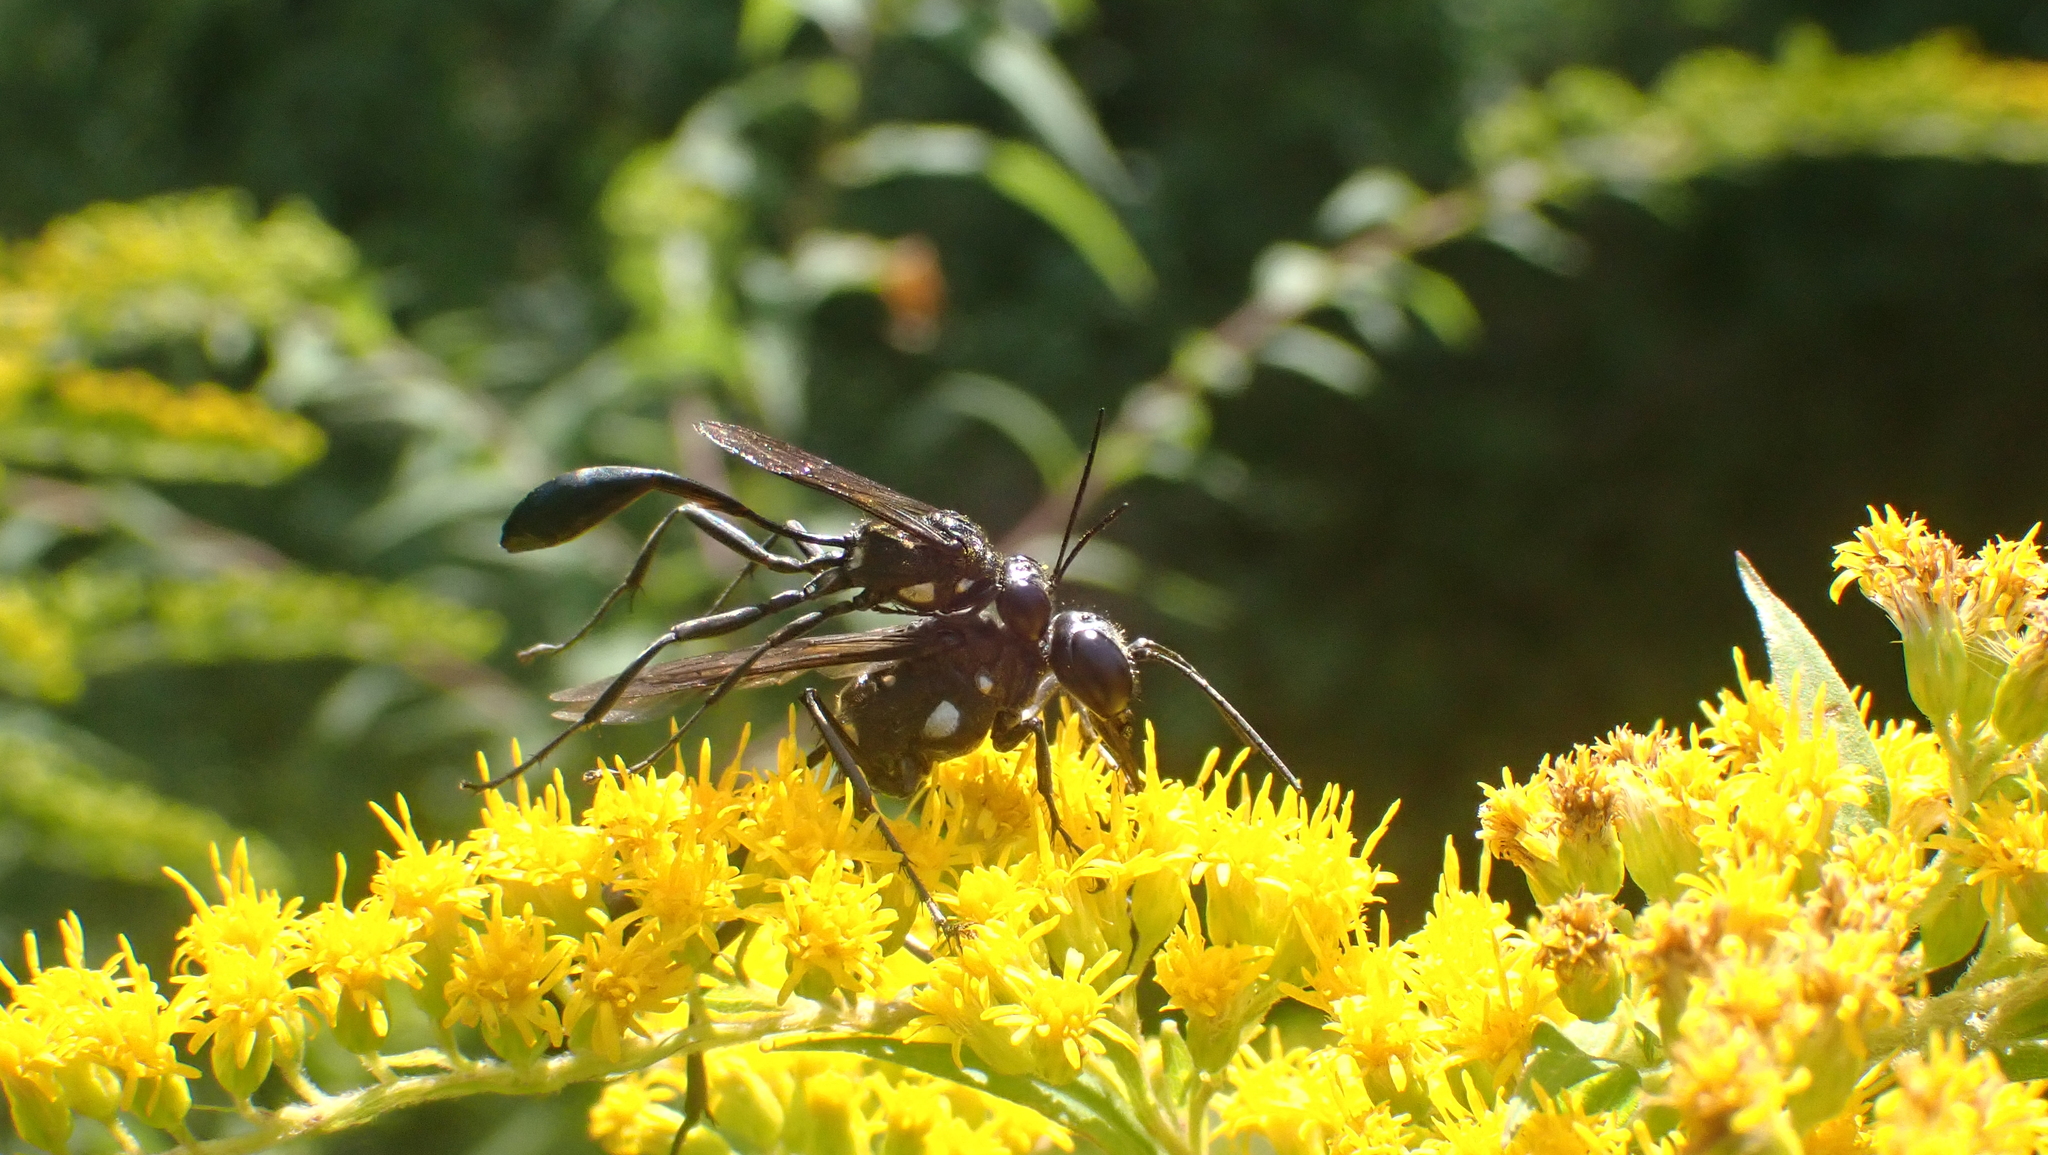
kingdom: Animalia
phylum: Arthropoda
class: Insecta
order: Hymenoptera
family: Sphecidae
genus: Eremnophila
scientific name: Eremnophila aureonotata
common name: Gold-marked thread-waisted wasp
